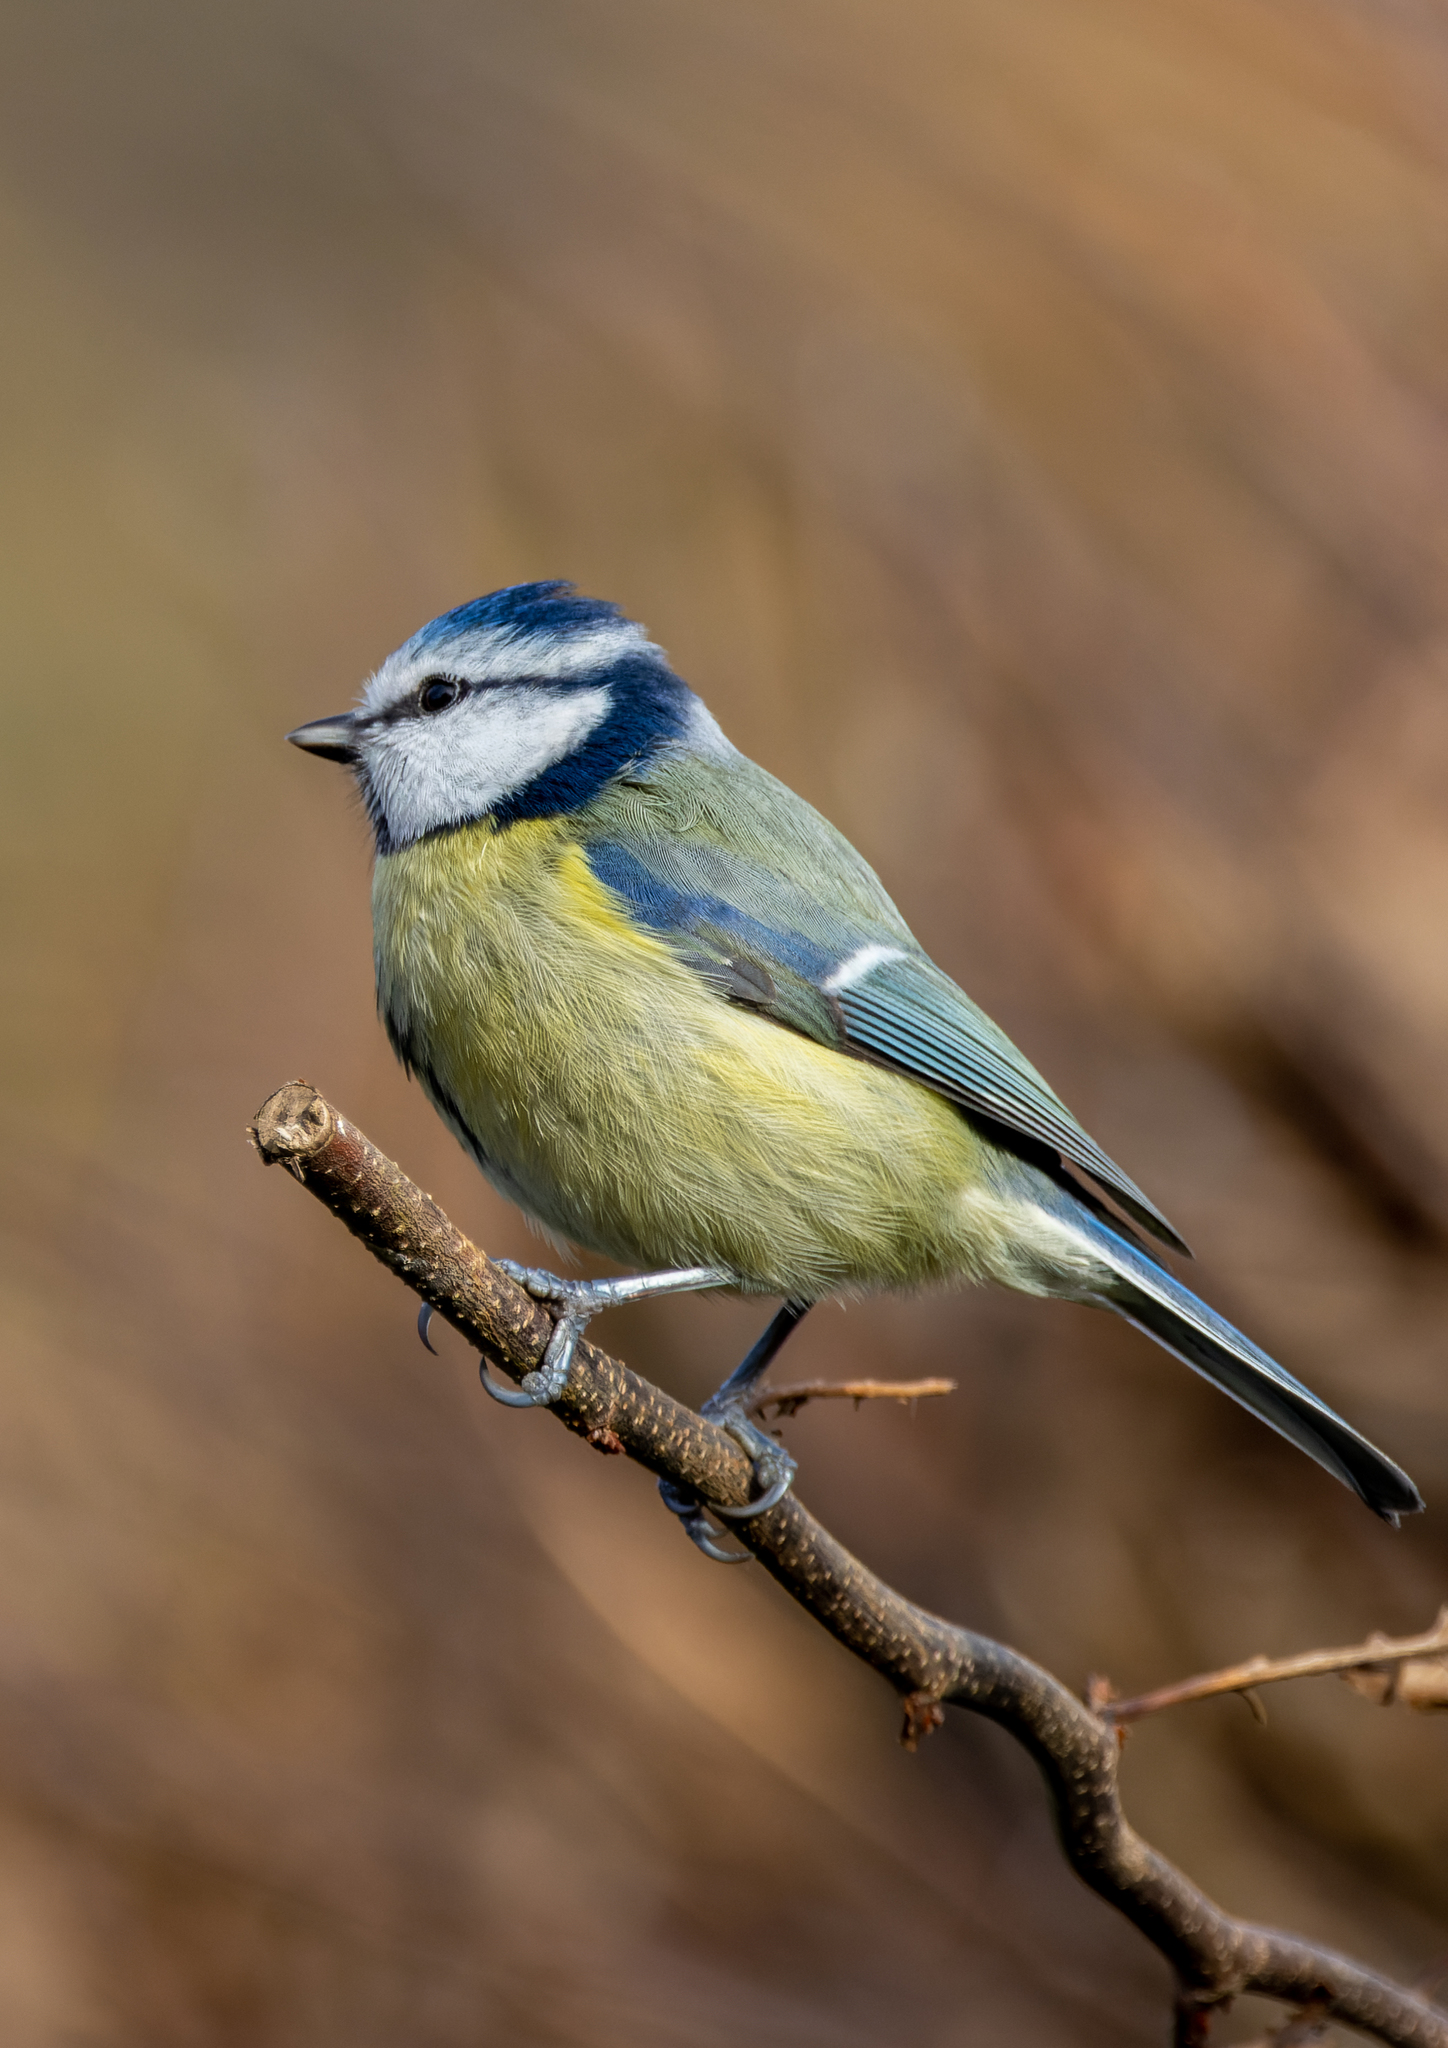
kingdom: Animalia
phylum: Chordata
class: Aves
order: Passeriformes
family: Paridae
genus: Cyanistes
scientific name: Cyanistes caeruleus
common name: Eurasian blue tit
